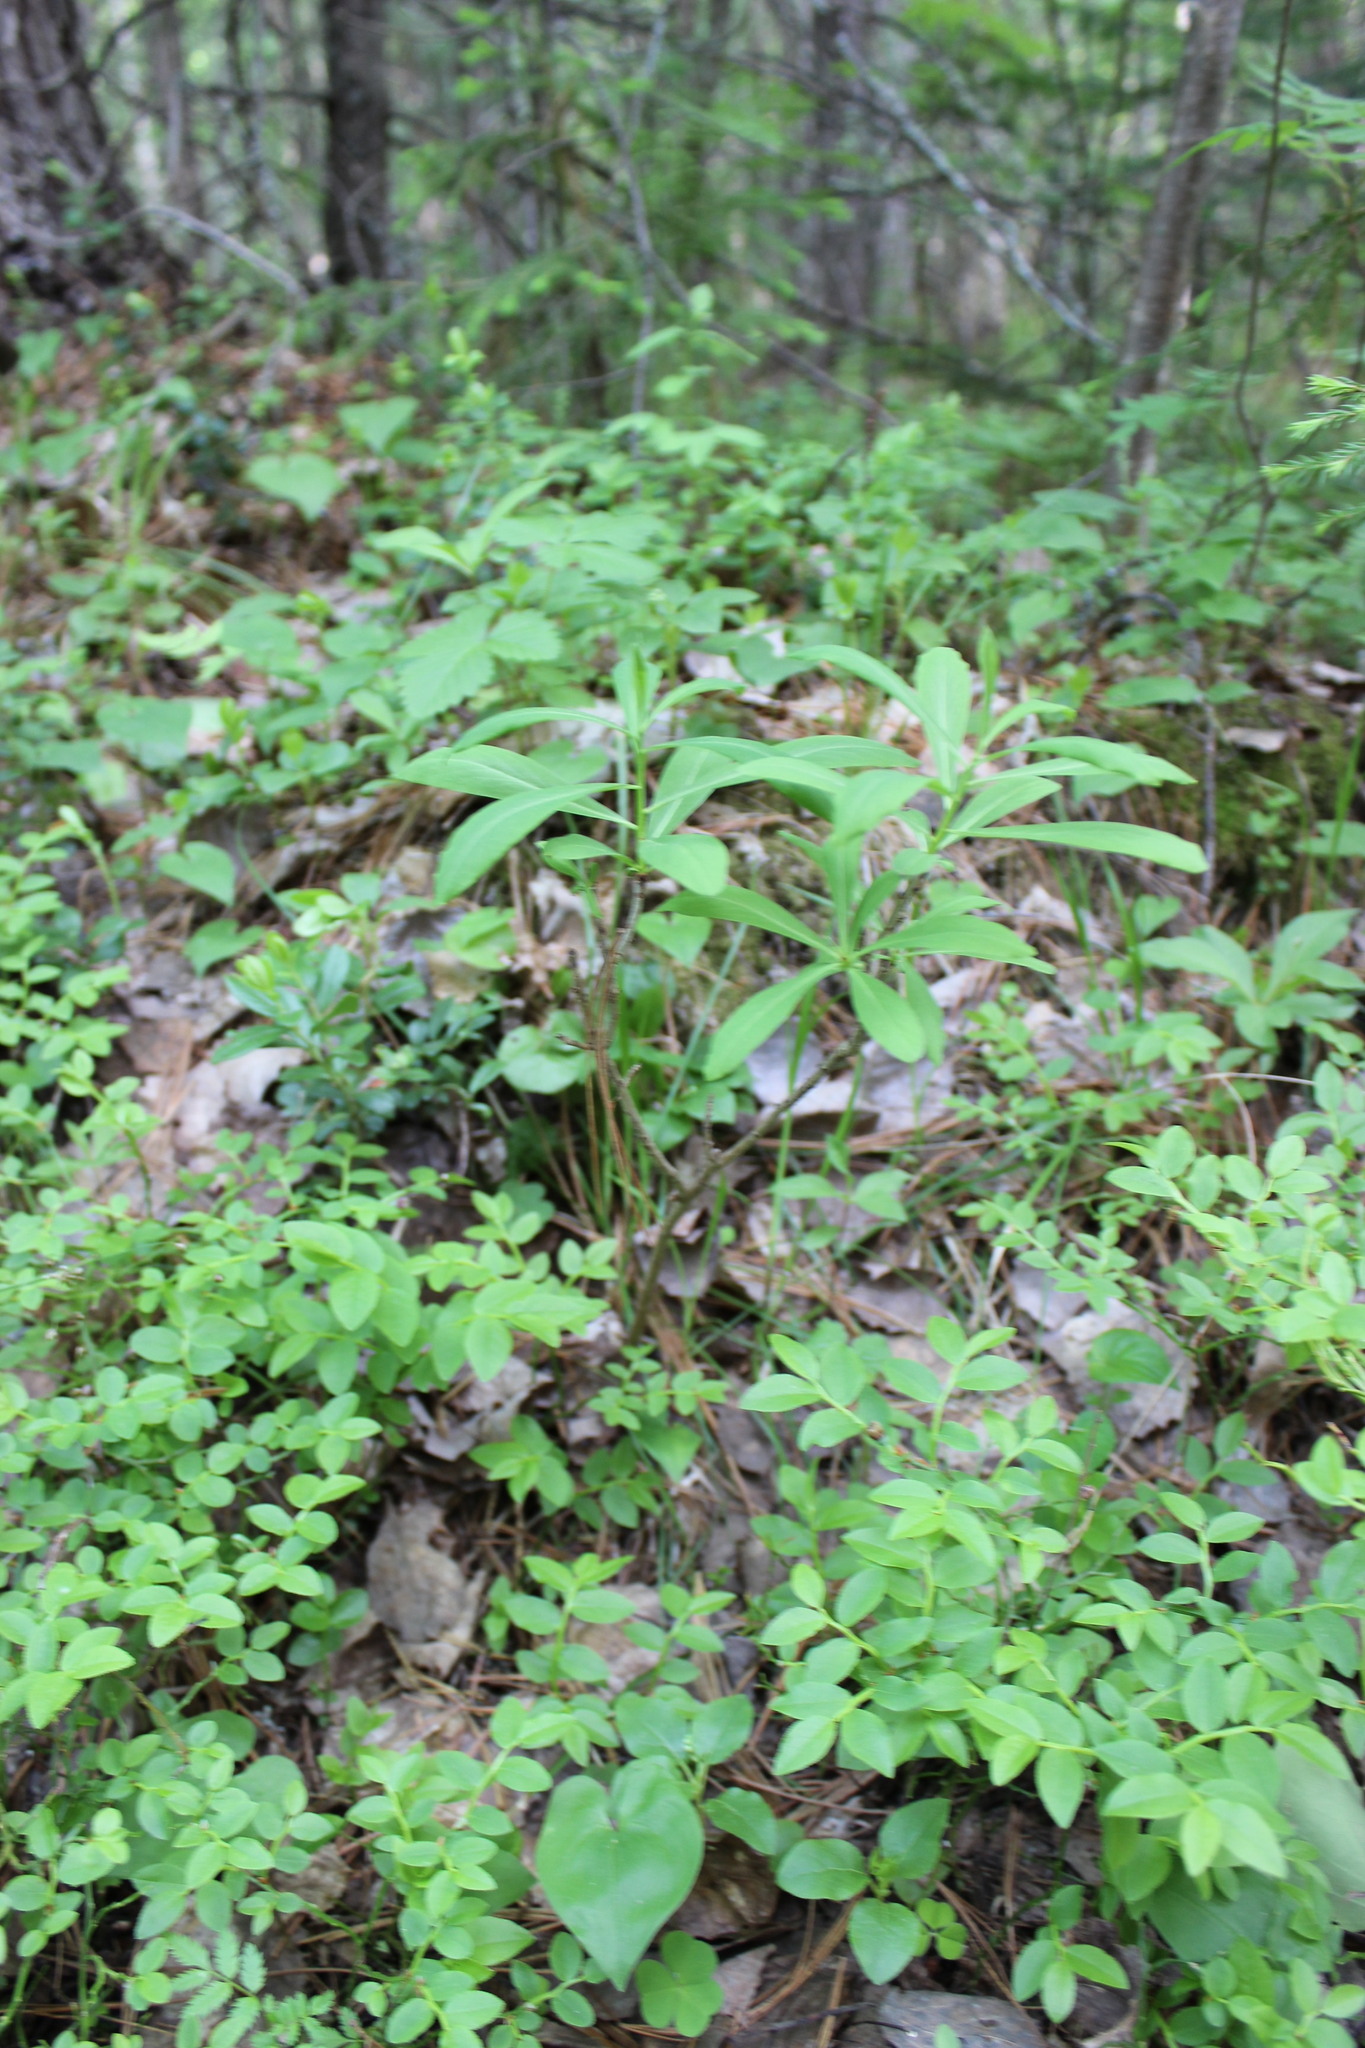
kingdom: Plantae
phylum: Tracheophyta
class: Magnoliopsida
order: Malvales
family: Thymelaeaceae
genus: Daphne
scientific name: Daphne mezereum
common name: Mezereon
